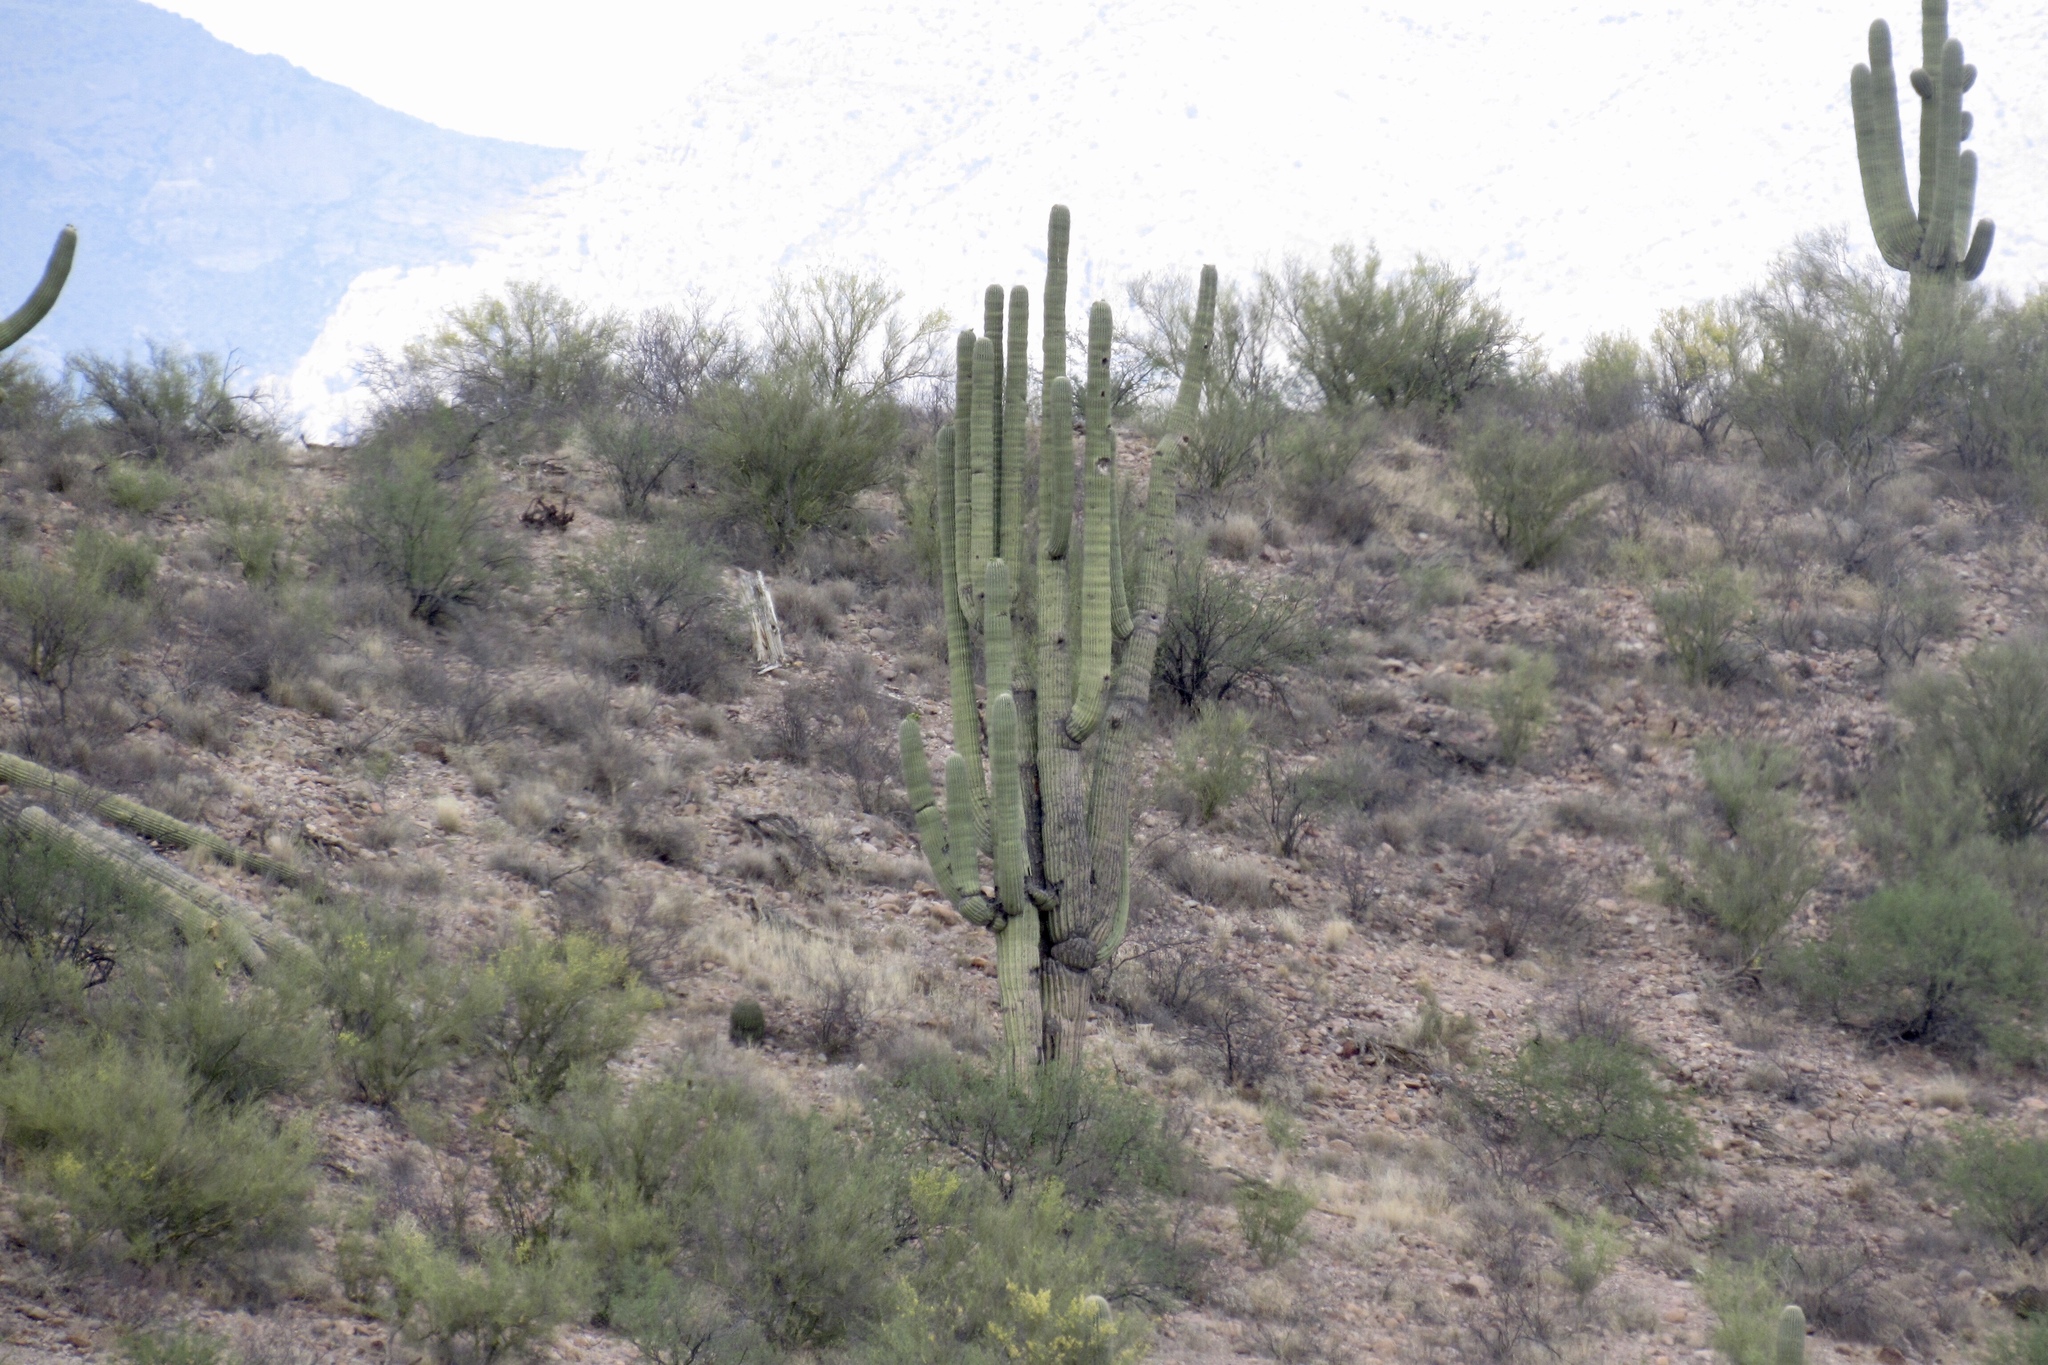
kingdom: Plantae
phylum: Tracheophyta
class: Magnoliopsida
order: Caryophyllales
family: Cactaceae
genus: Carnegiea
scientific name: Carnegiea gigantea
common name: Saguaro
